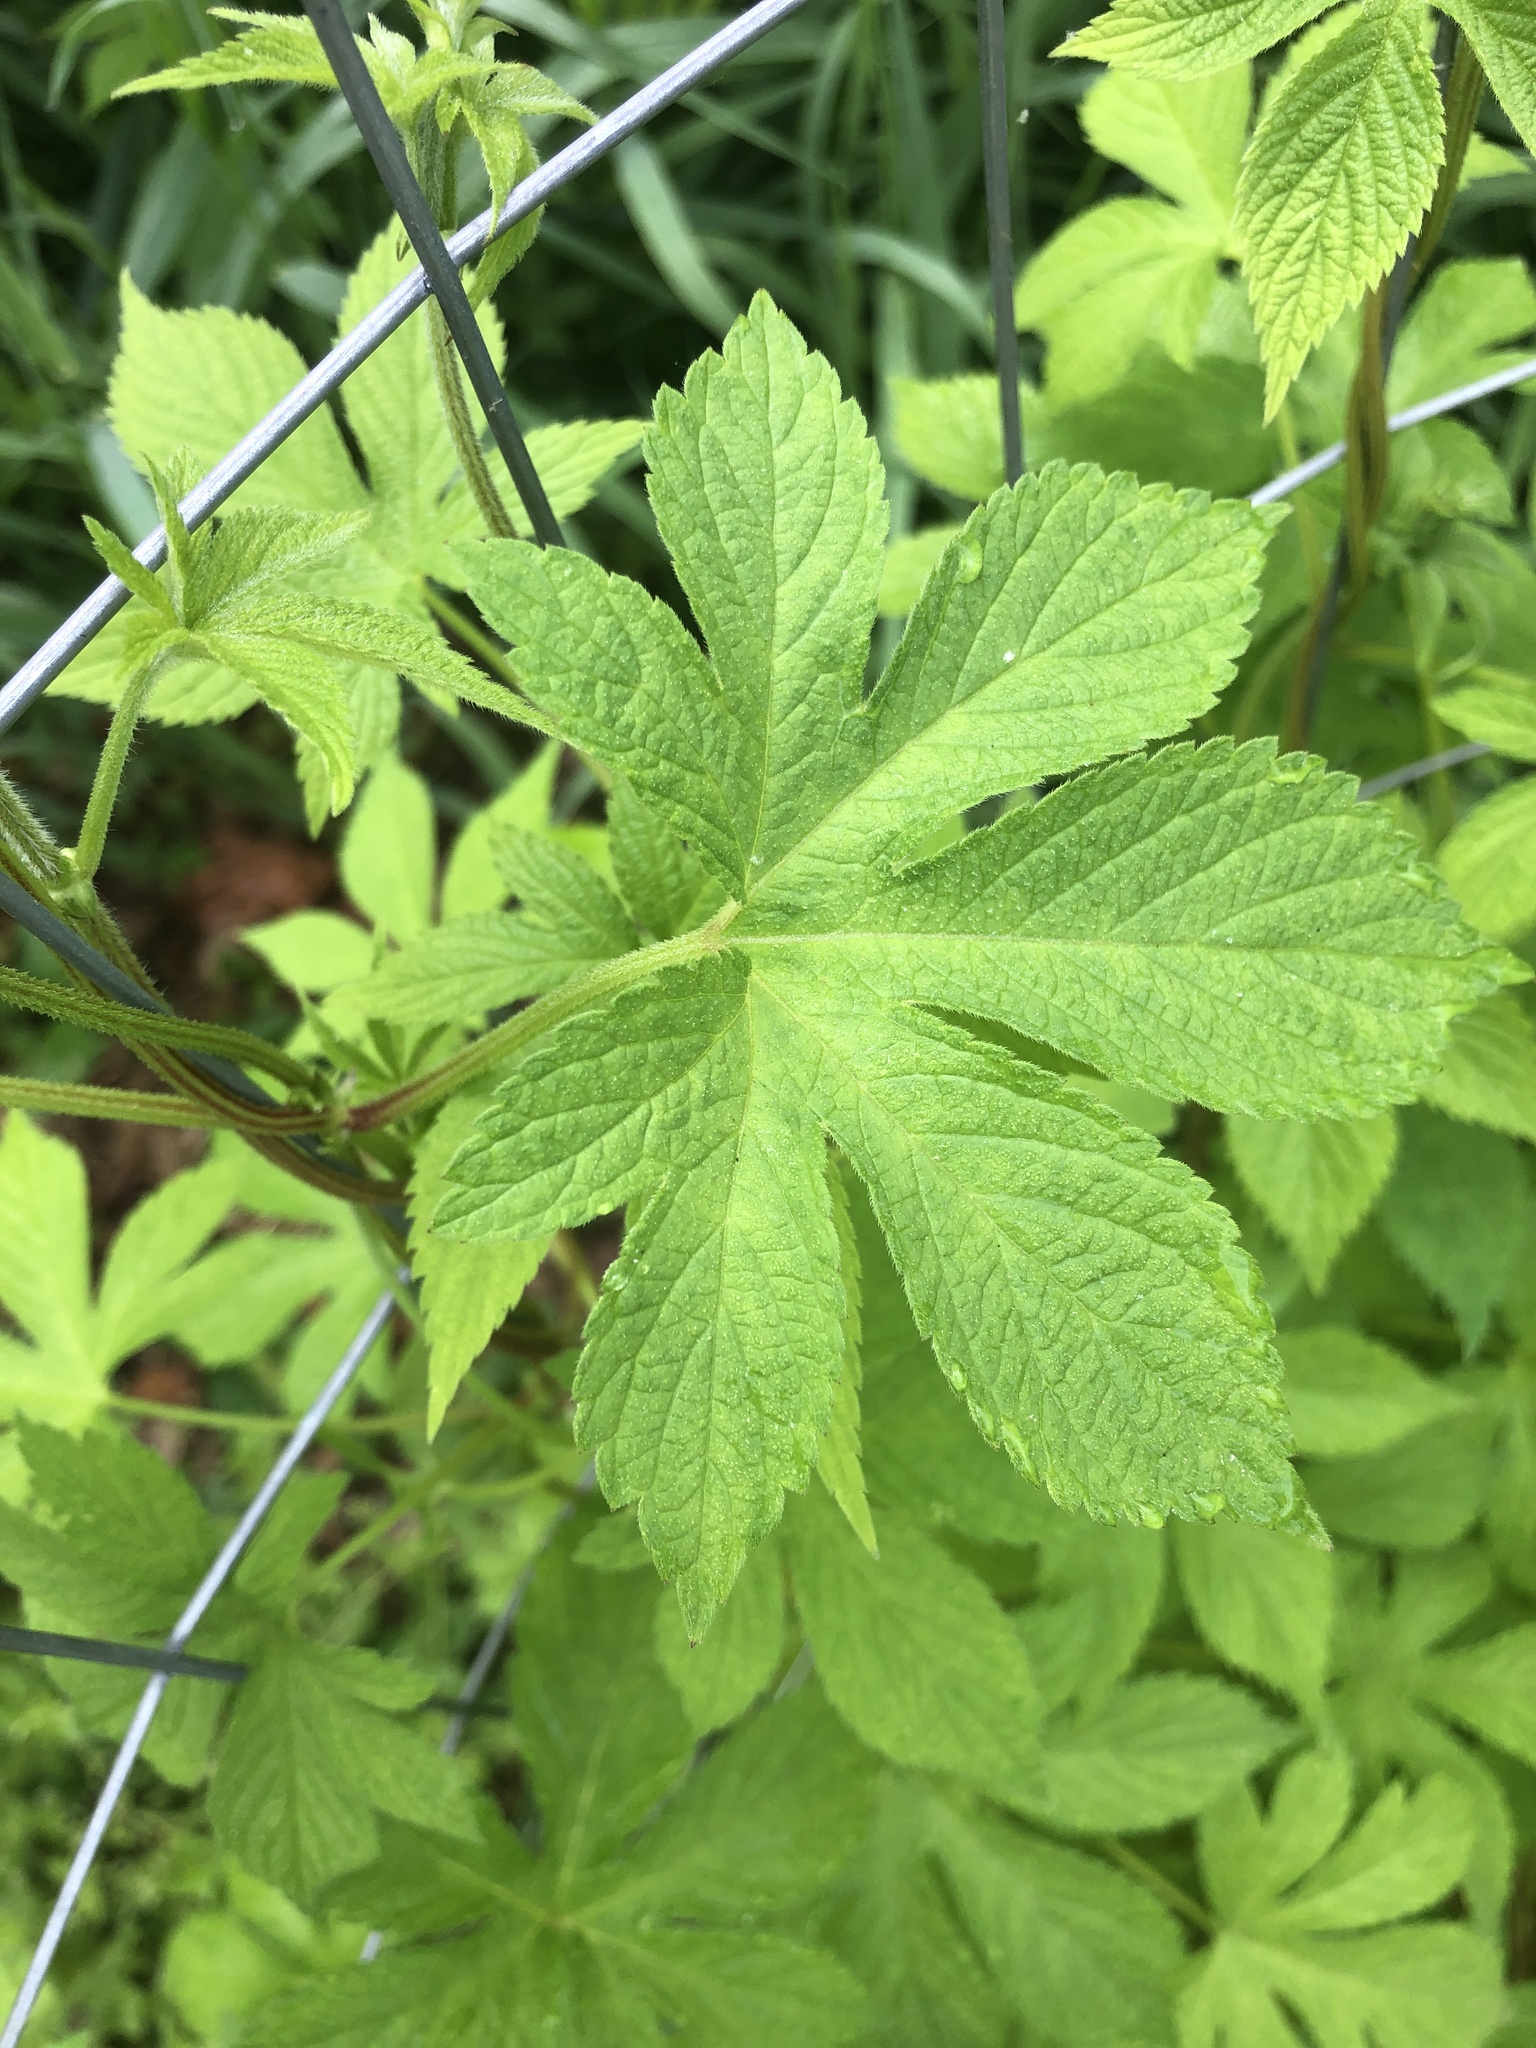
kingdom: Plantae
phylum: Tracheophyta
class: Magnoliopsida
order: Rosales
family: Cannabaceae
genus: Humulus
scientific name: Humulus scandens
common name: Japanese hop
